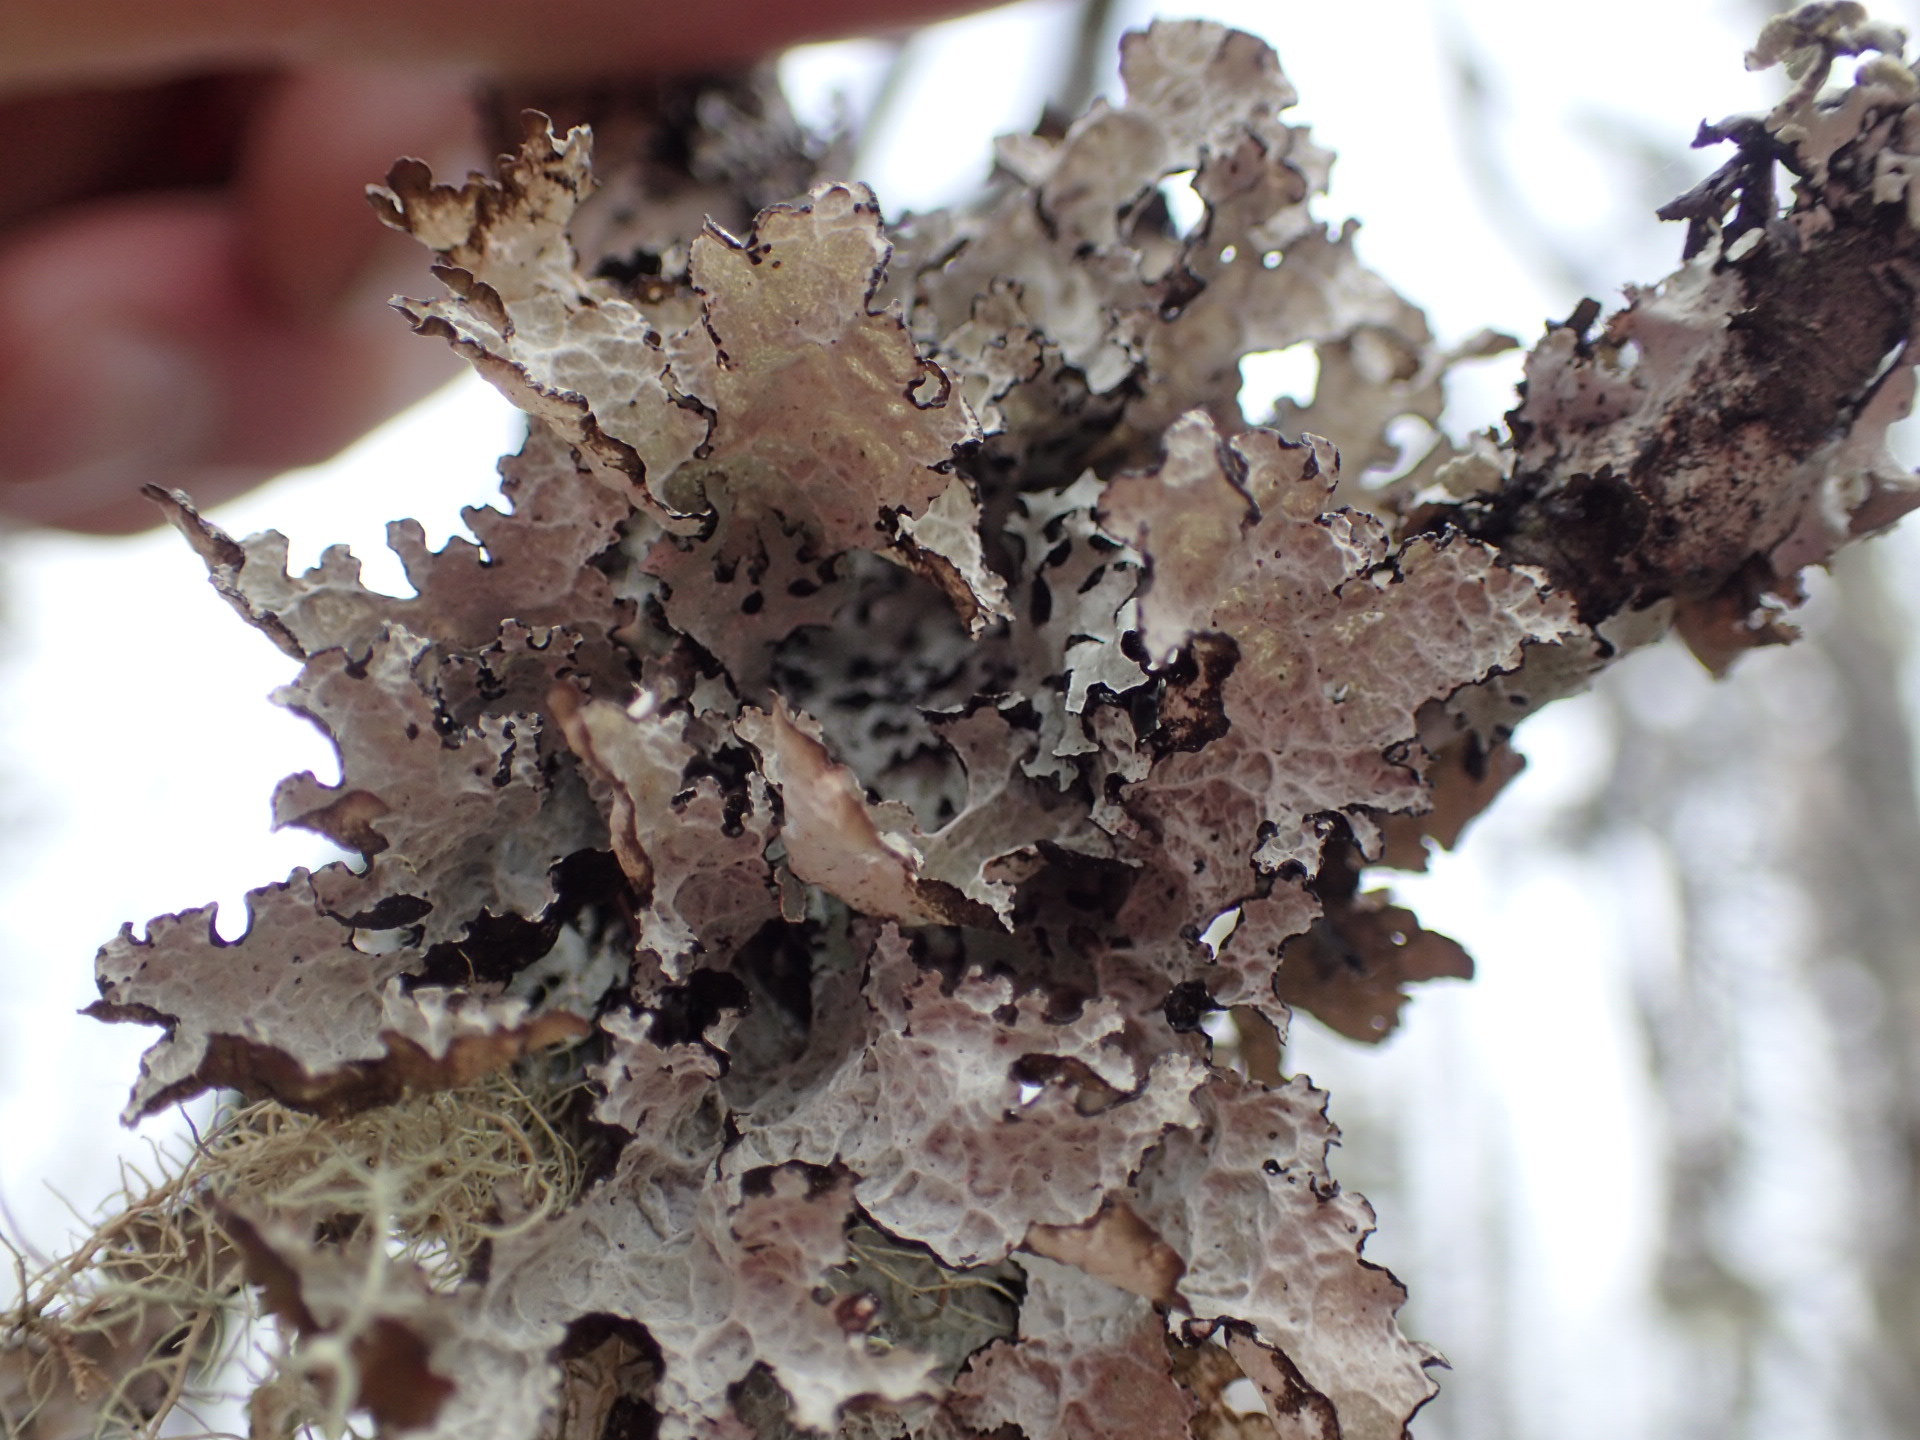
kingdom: Fungi
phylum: Ascomycota
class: Lecanoromycetes
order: Lecanorales
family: Parmeliaceae
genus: Platismatia
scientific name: Platismatia tuckermanii
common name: Crumpled rag lichen
